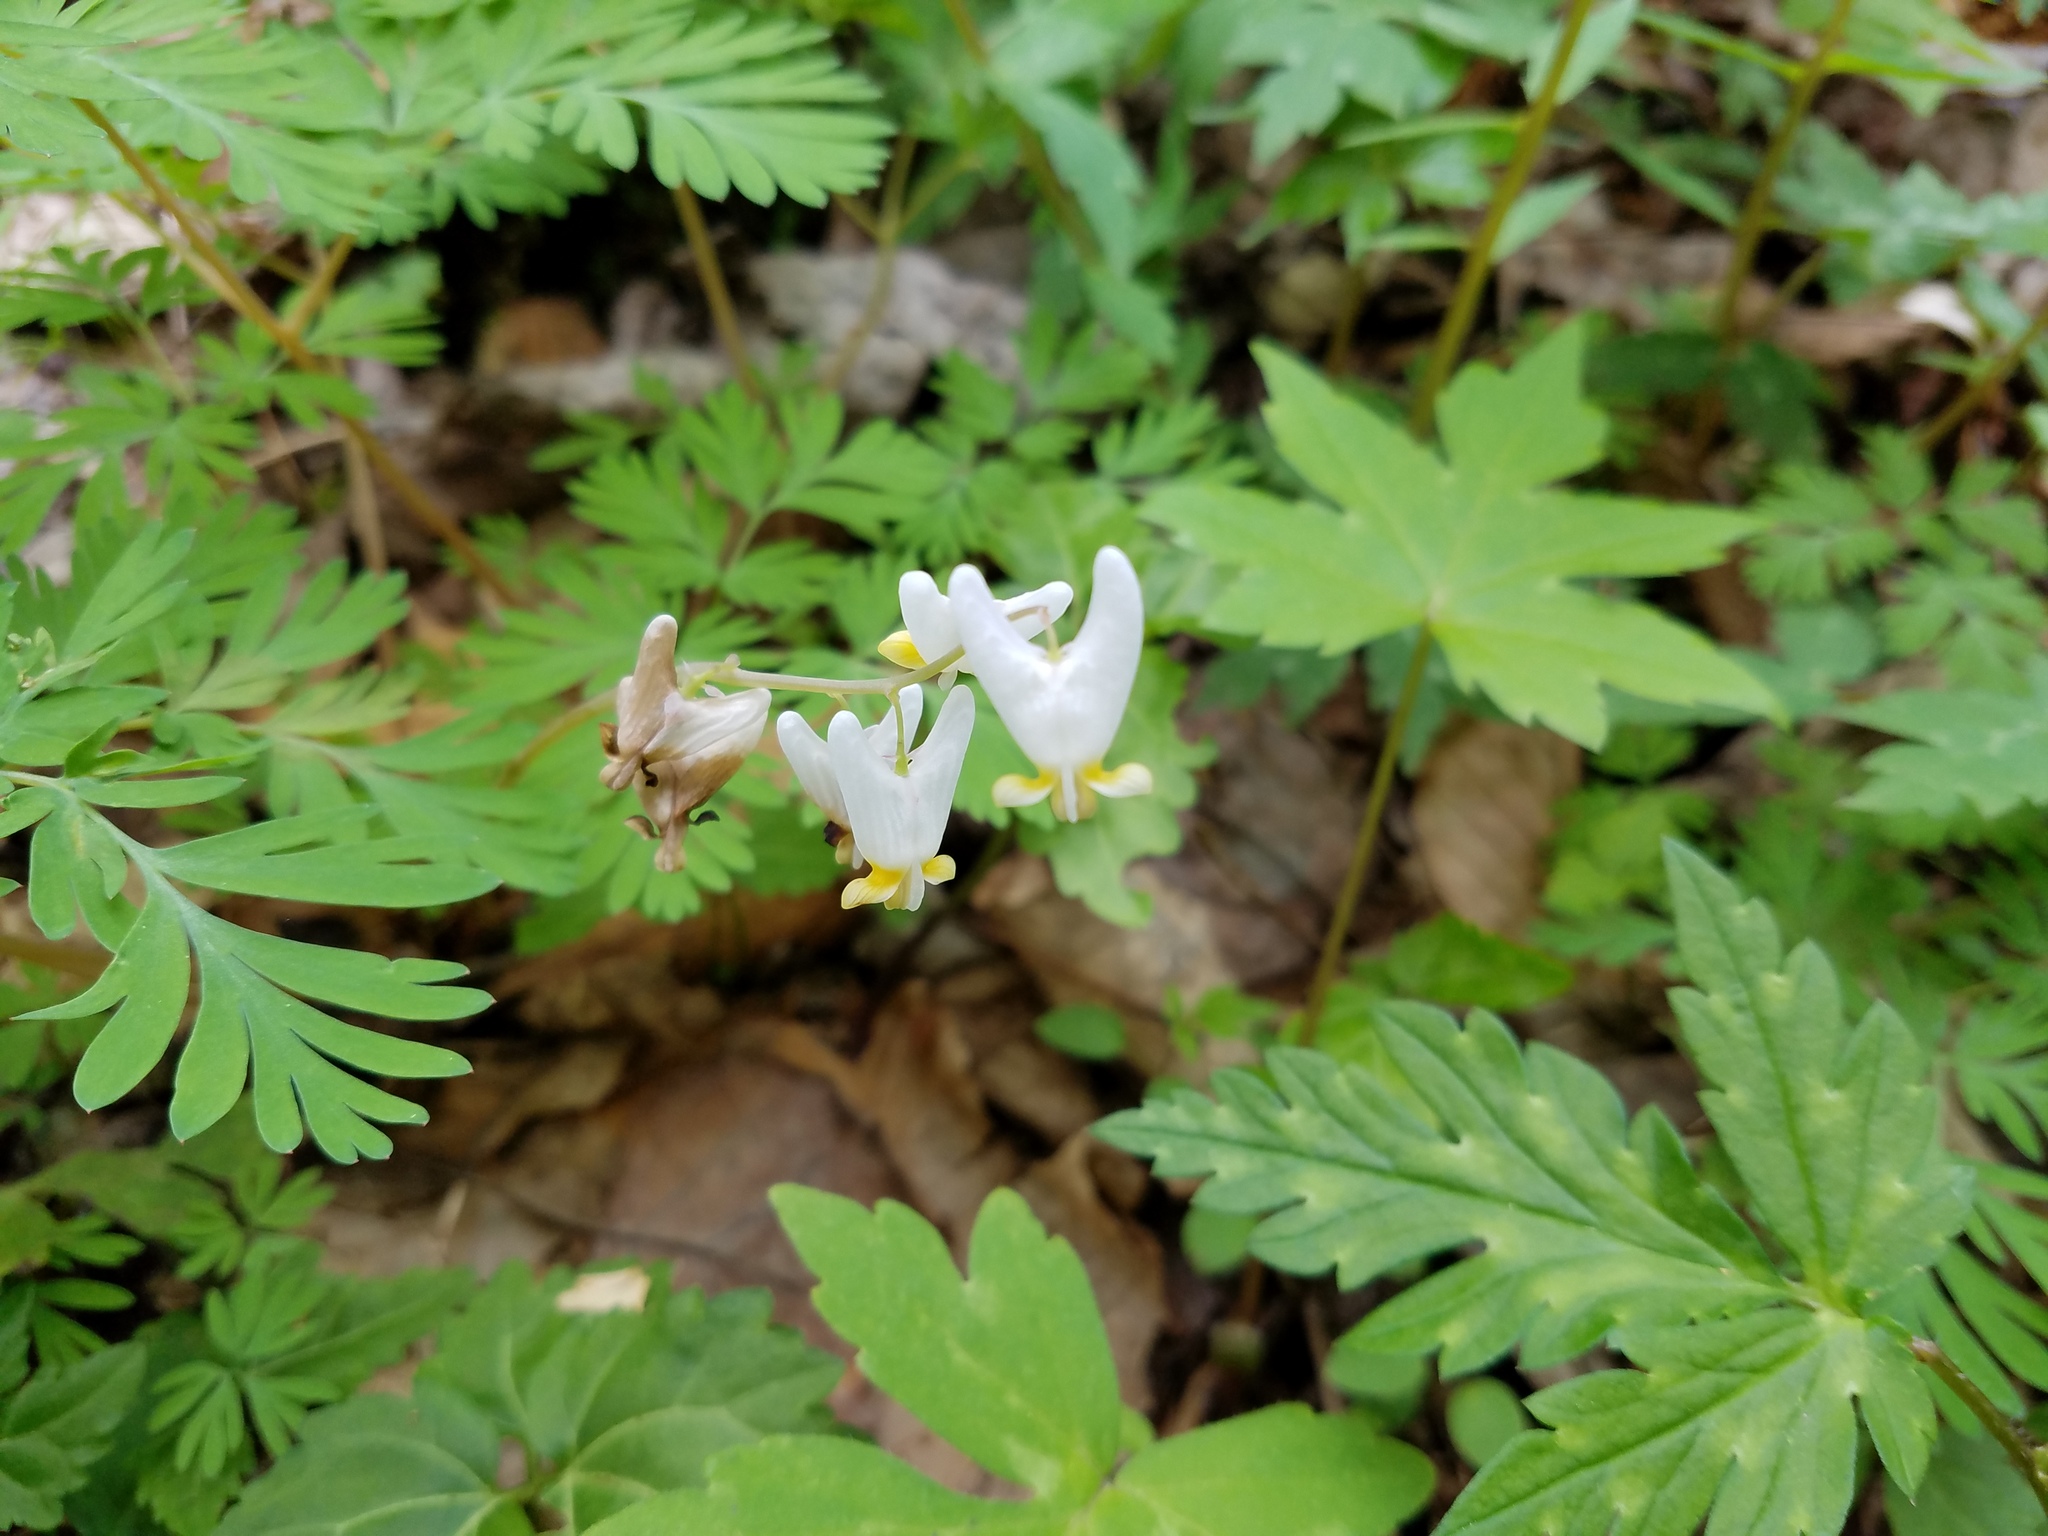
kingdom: Plantae
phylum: Tracheophyta
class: Magnoliopsida
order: Ranunculales
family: Papaveraceae
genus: Dicentra
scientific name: Dicentra cucullaria
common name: Dutchman's breeches
